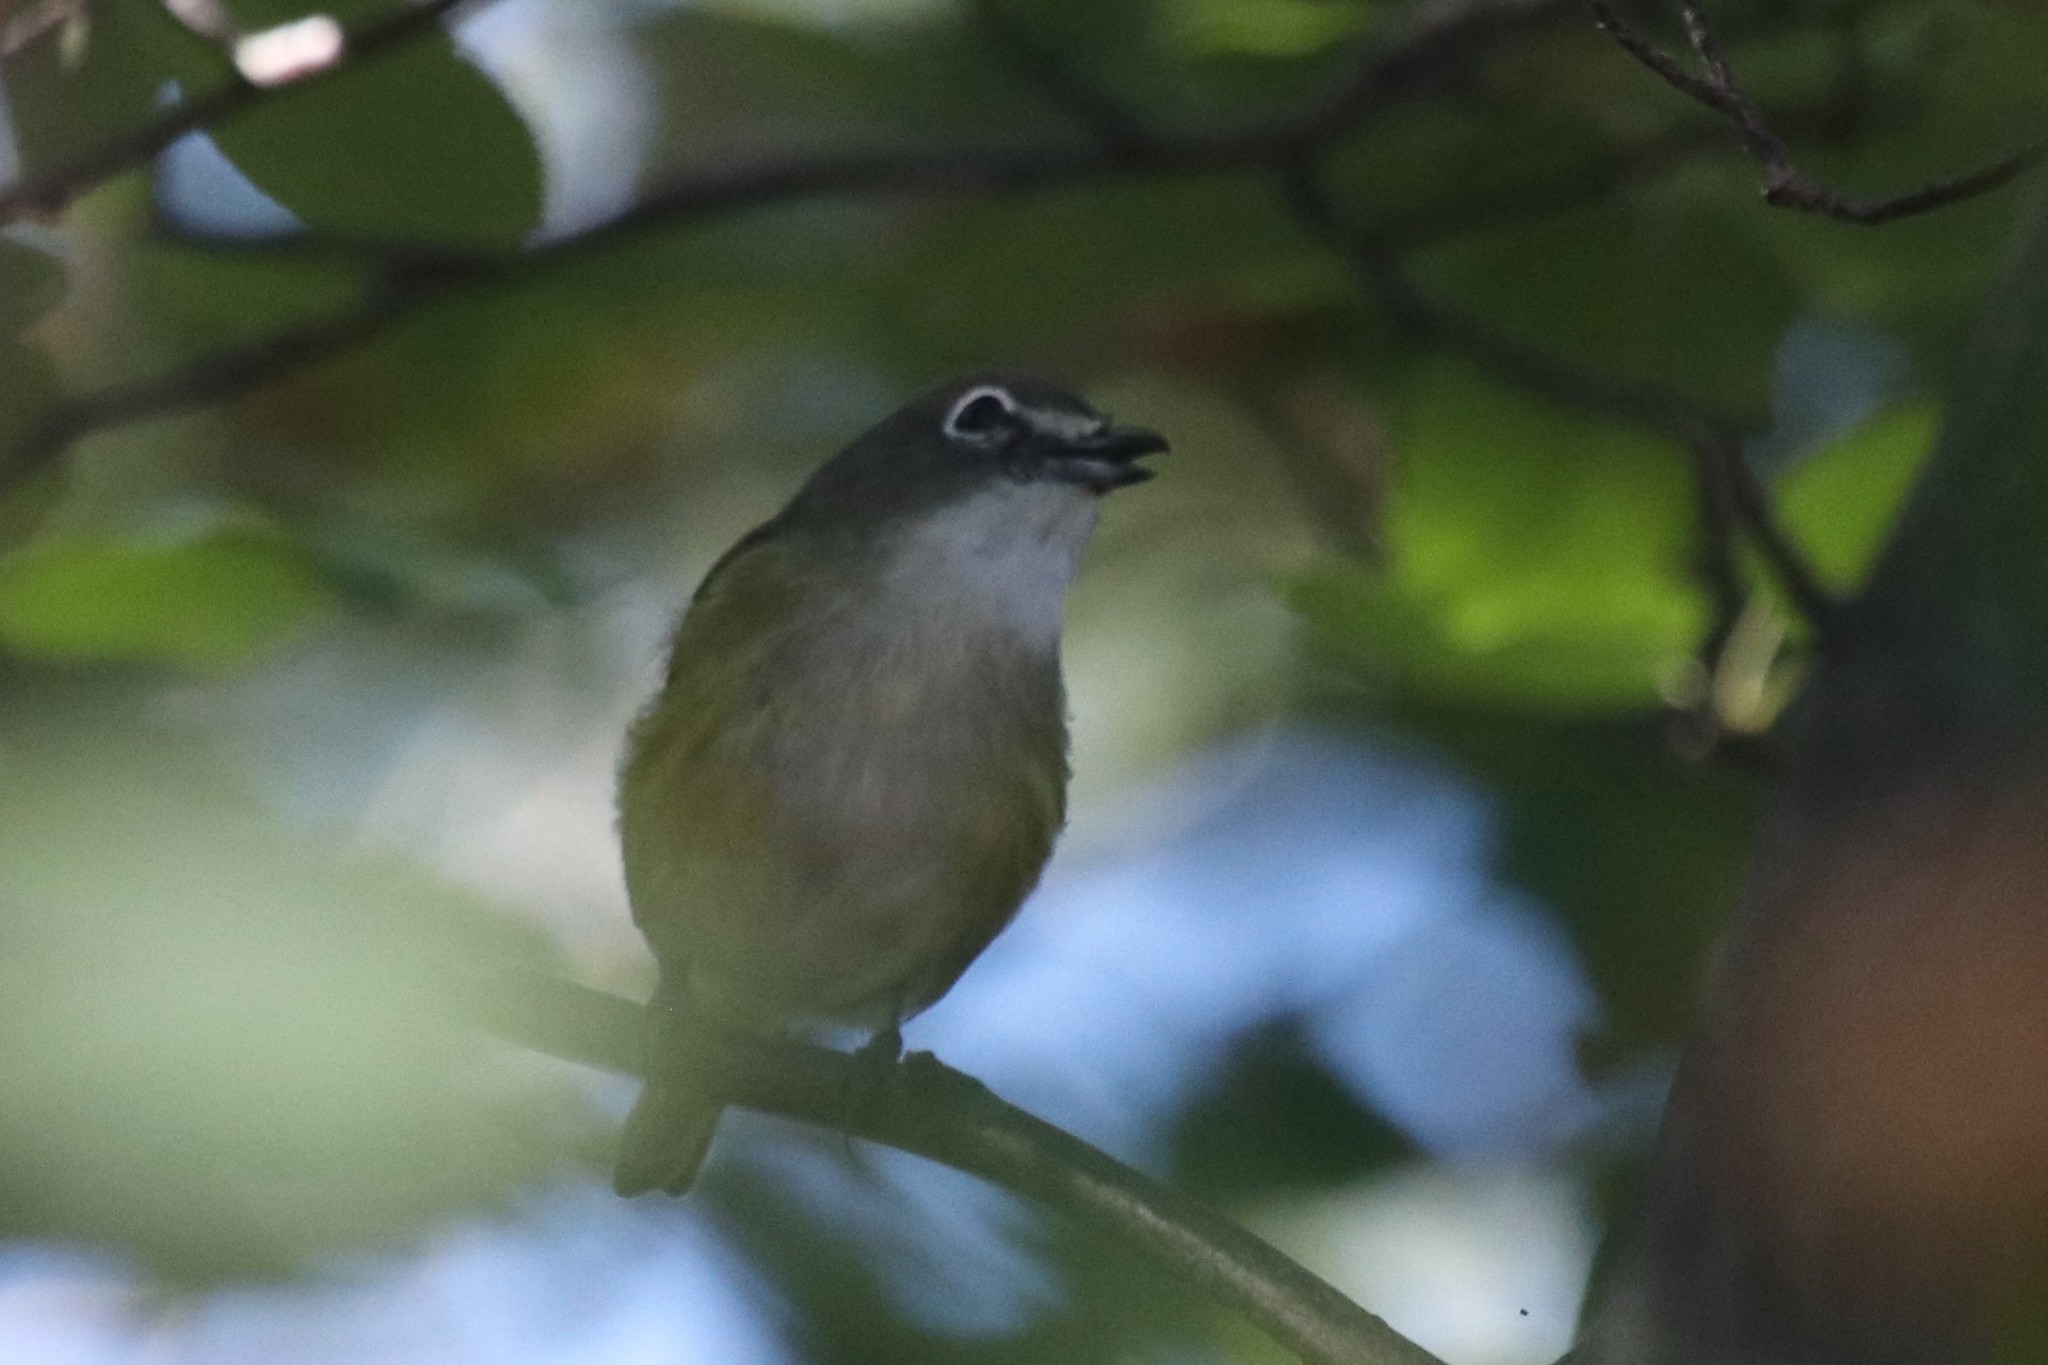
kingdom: Animalia
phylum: Chordata
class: Aves
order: Passeriformes
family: Vireonidae
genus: Vireo
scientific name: Vireo solitarius
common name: Blue-headed vireo
